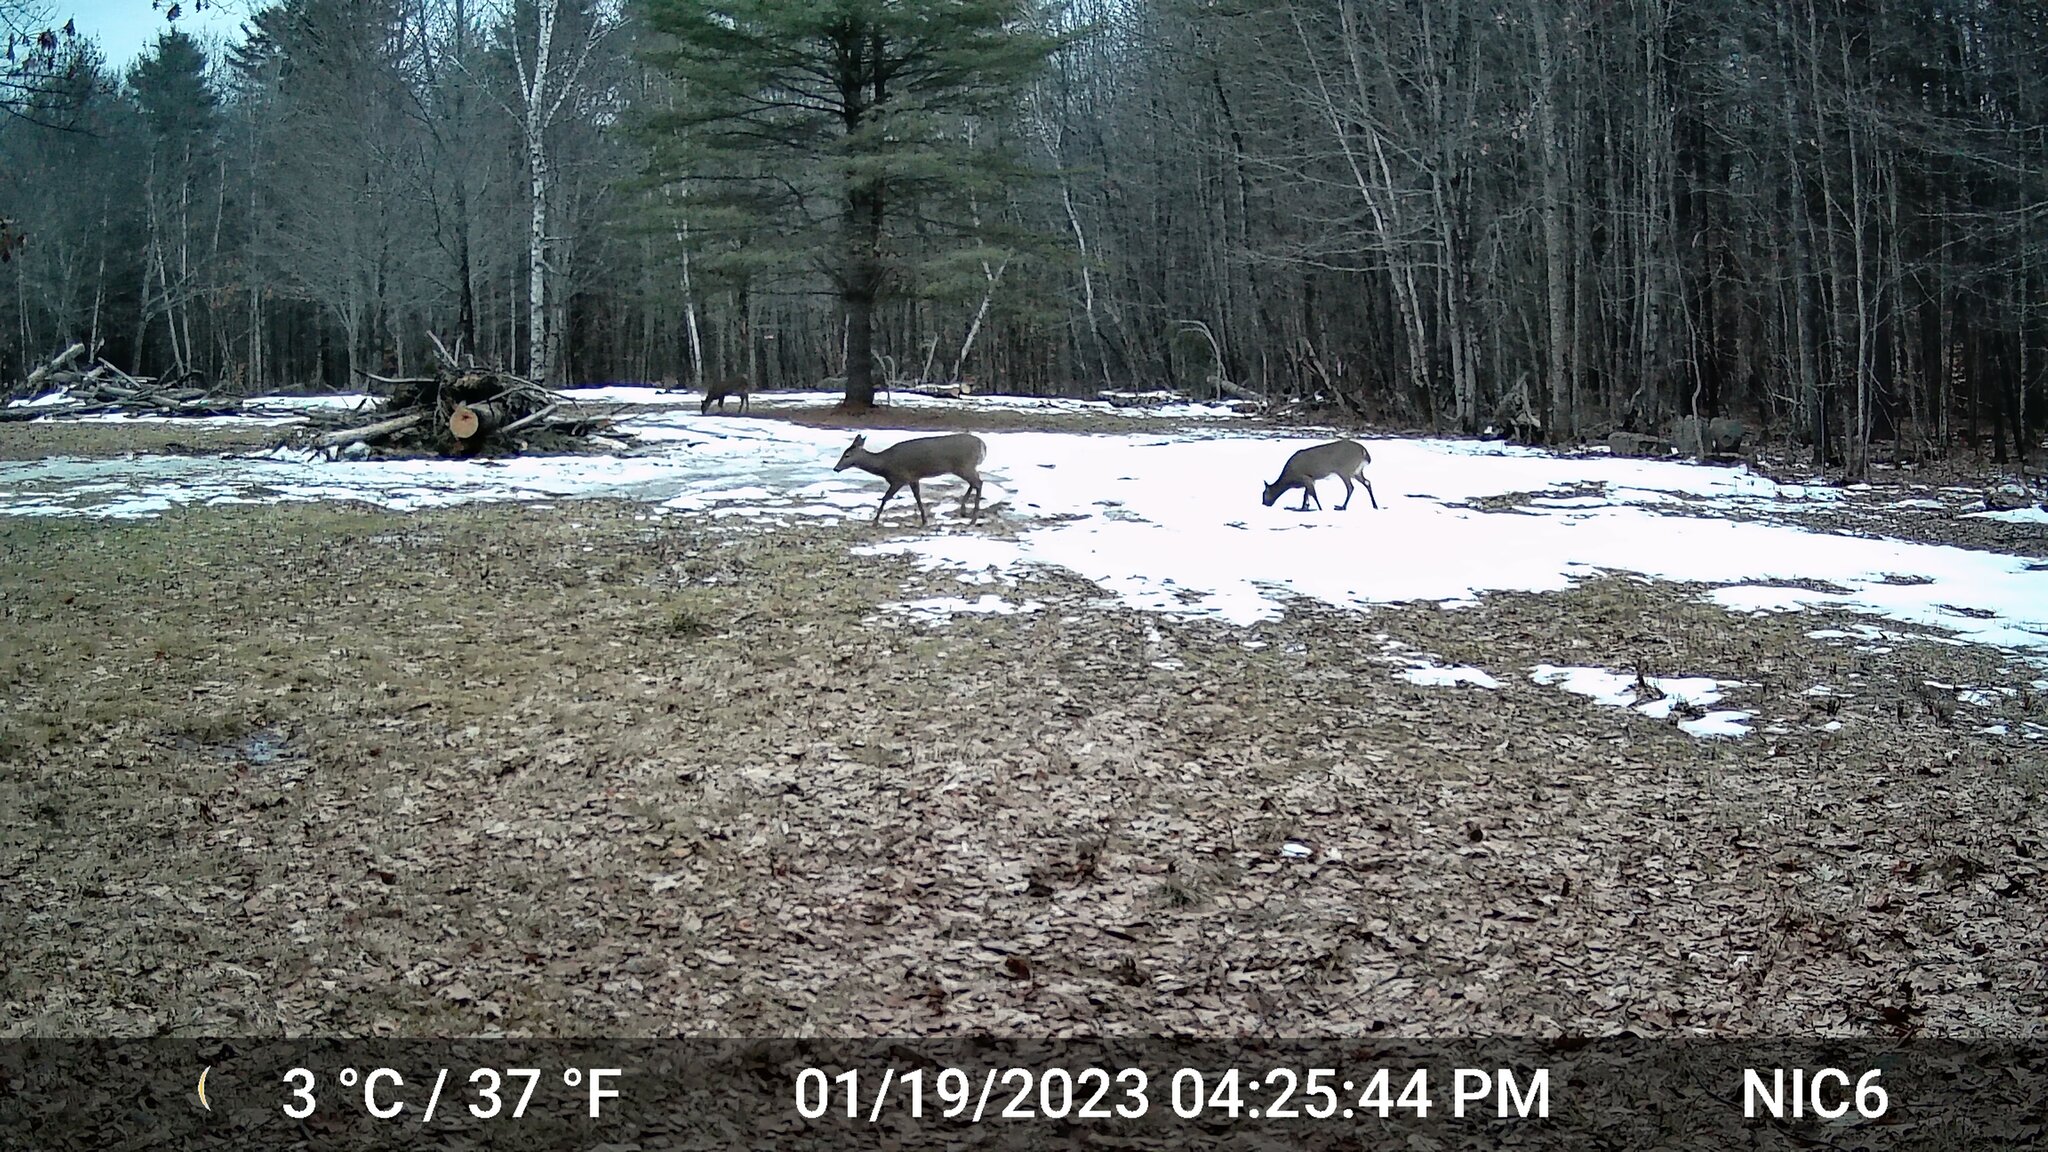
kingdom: Animalia
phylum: Chordata
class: Mammalia
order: Artiodactyla
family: Cervidae
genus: Odocoileus
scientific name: Odocoileus virginianus
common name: White-tailed deer
